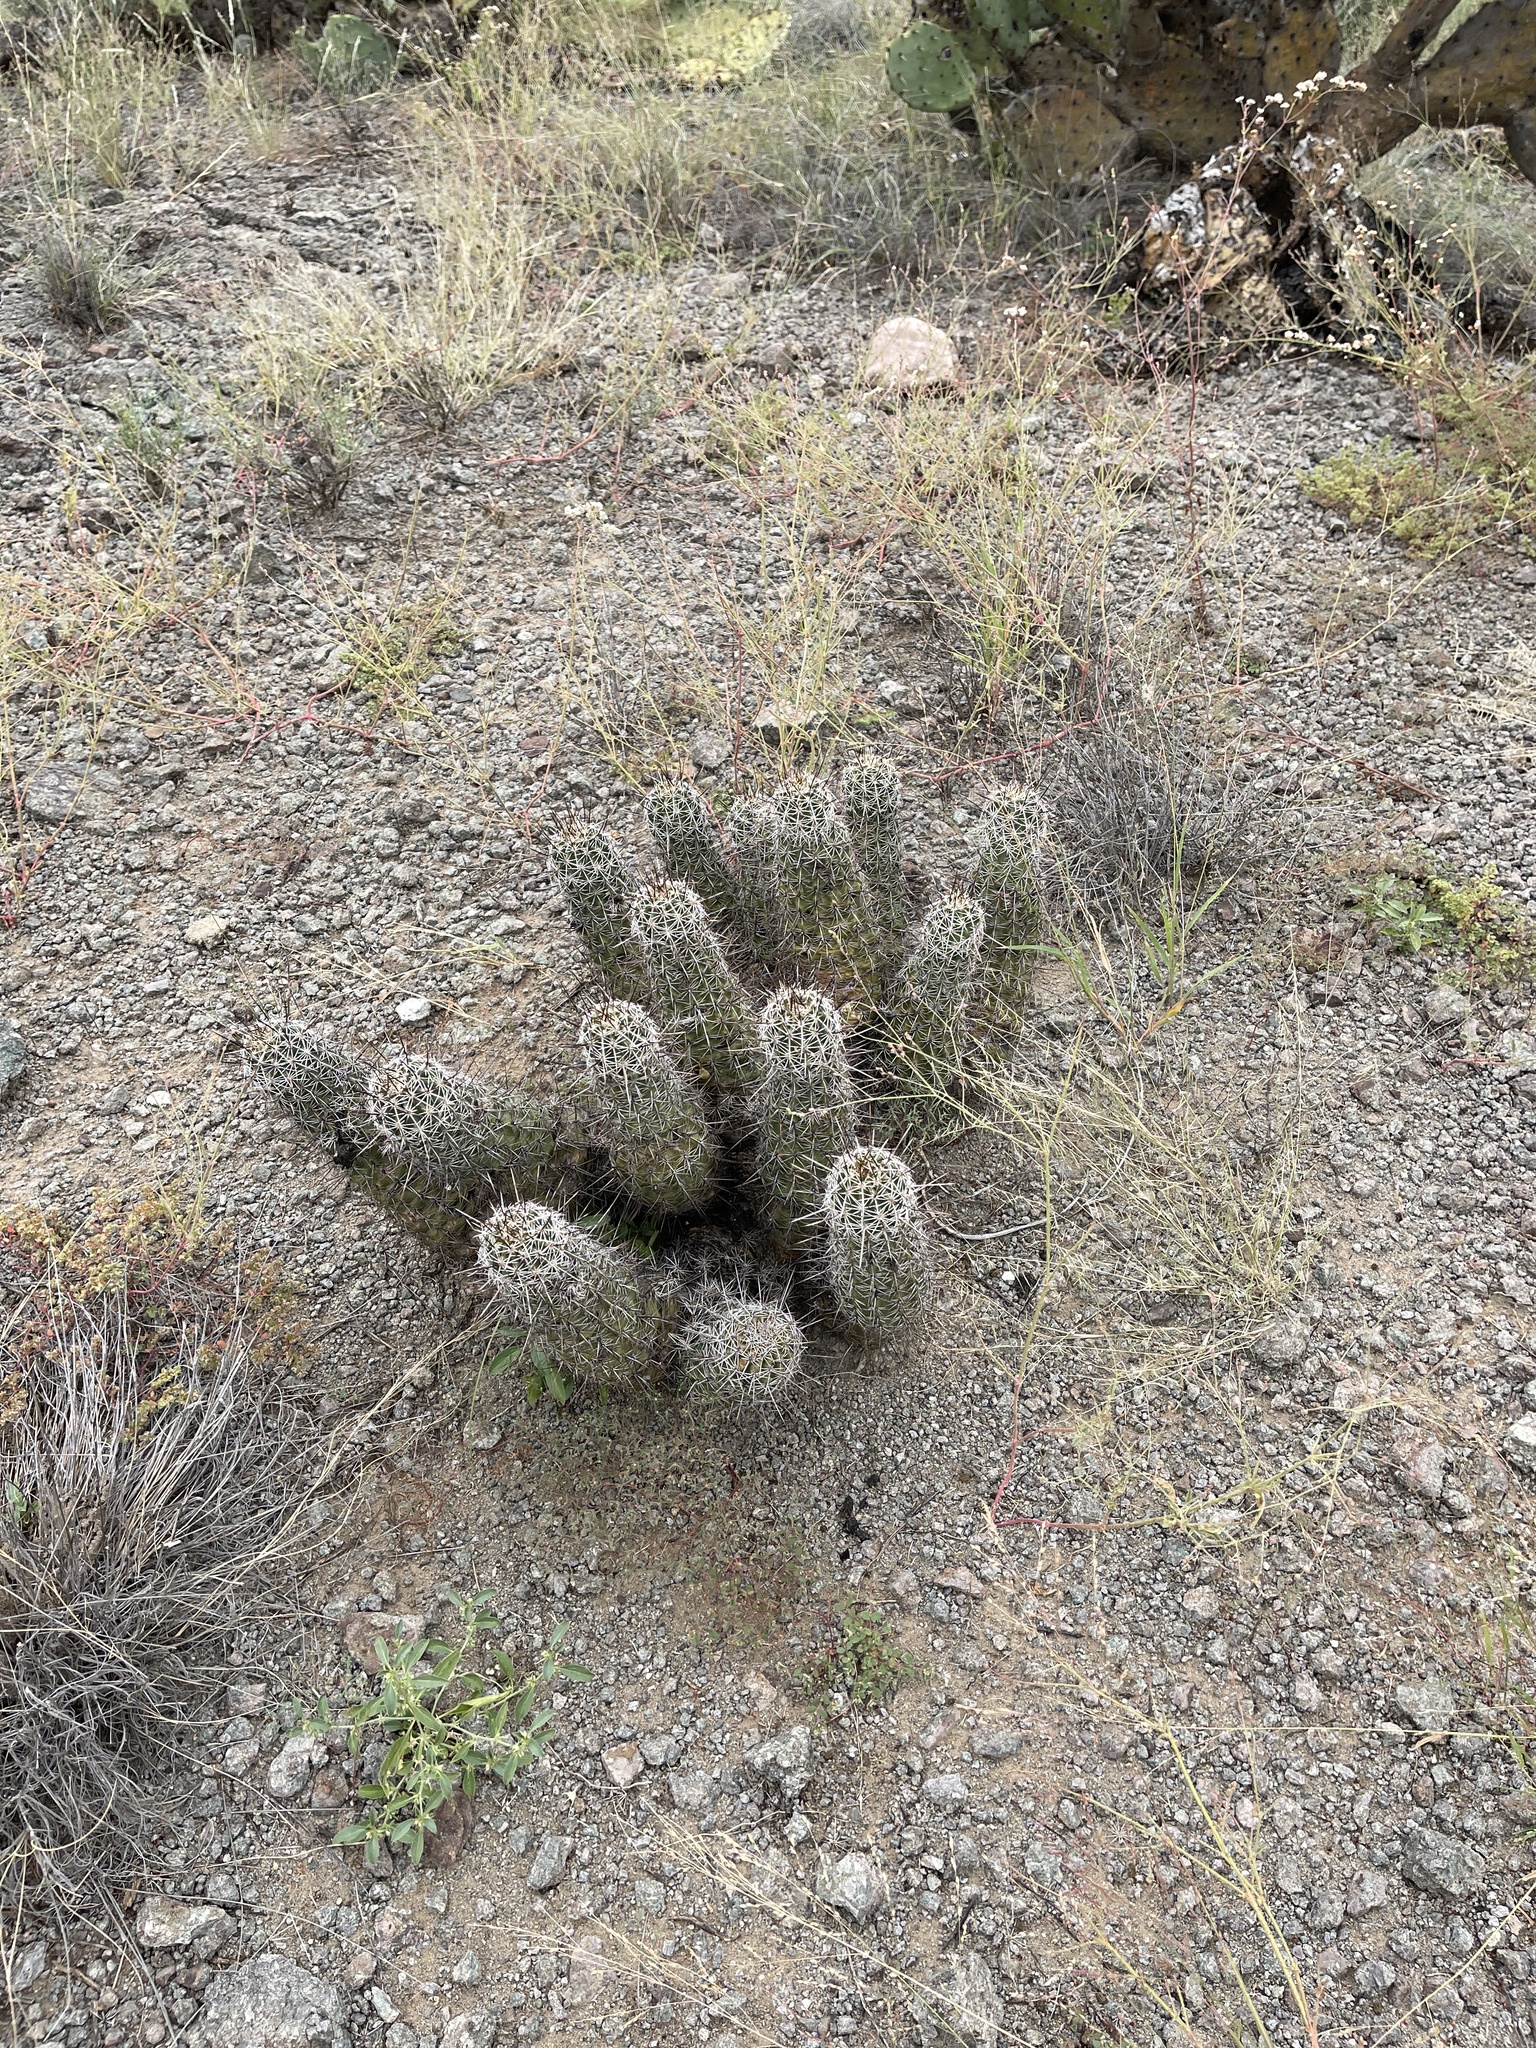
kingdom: Plantae
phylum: Tracheophyta
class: Magnoliopsida
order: Caryophyllales
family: Cactaceae
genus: Echinocereus
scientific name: Echinocereus fasciculatus
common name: Bundle hedgehog
